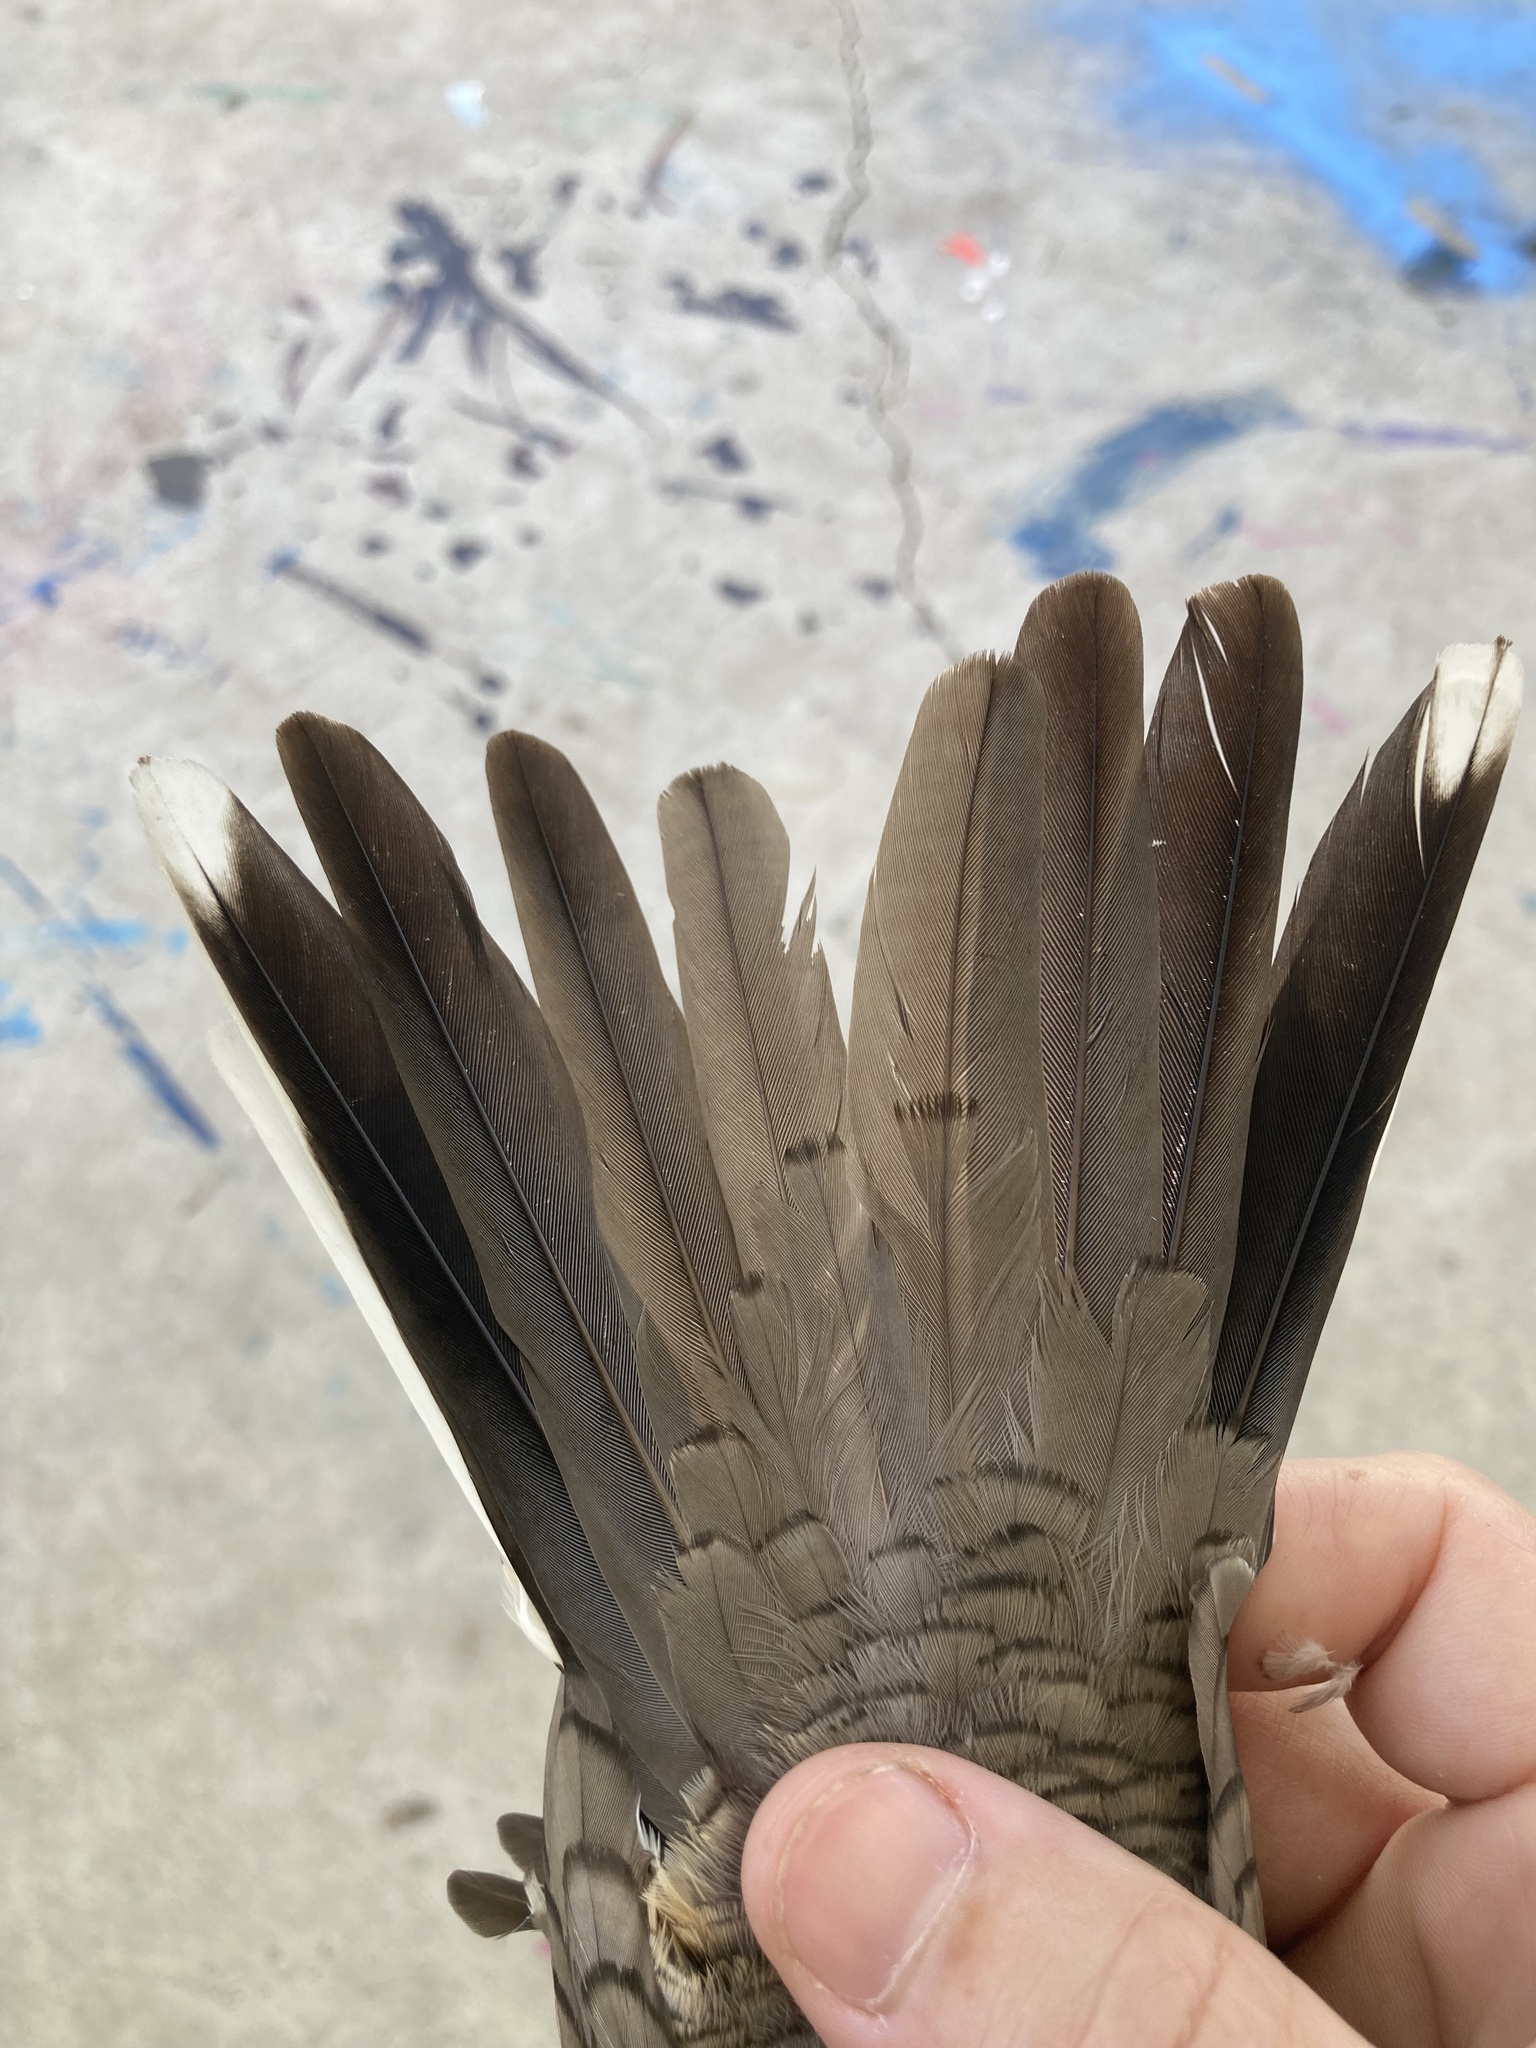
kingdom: Animalia
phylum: Chordata
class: Aves
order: Columbiformes
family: Columbidae
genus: Columbina
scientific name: Columbina inca
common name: Inca dove
